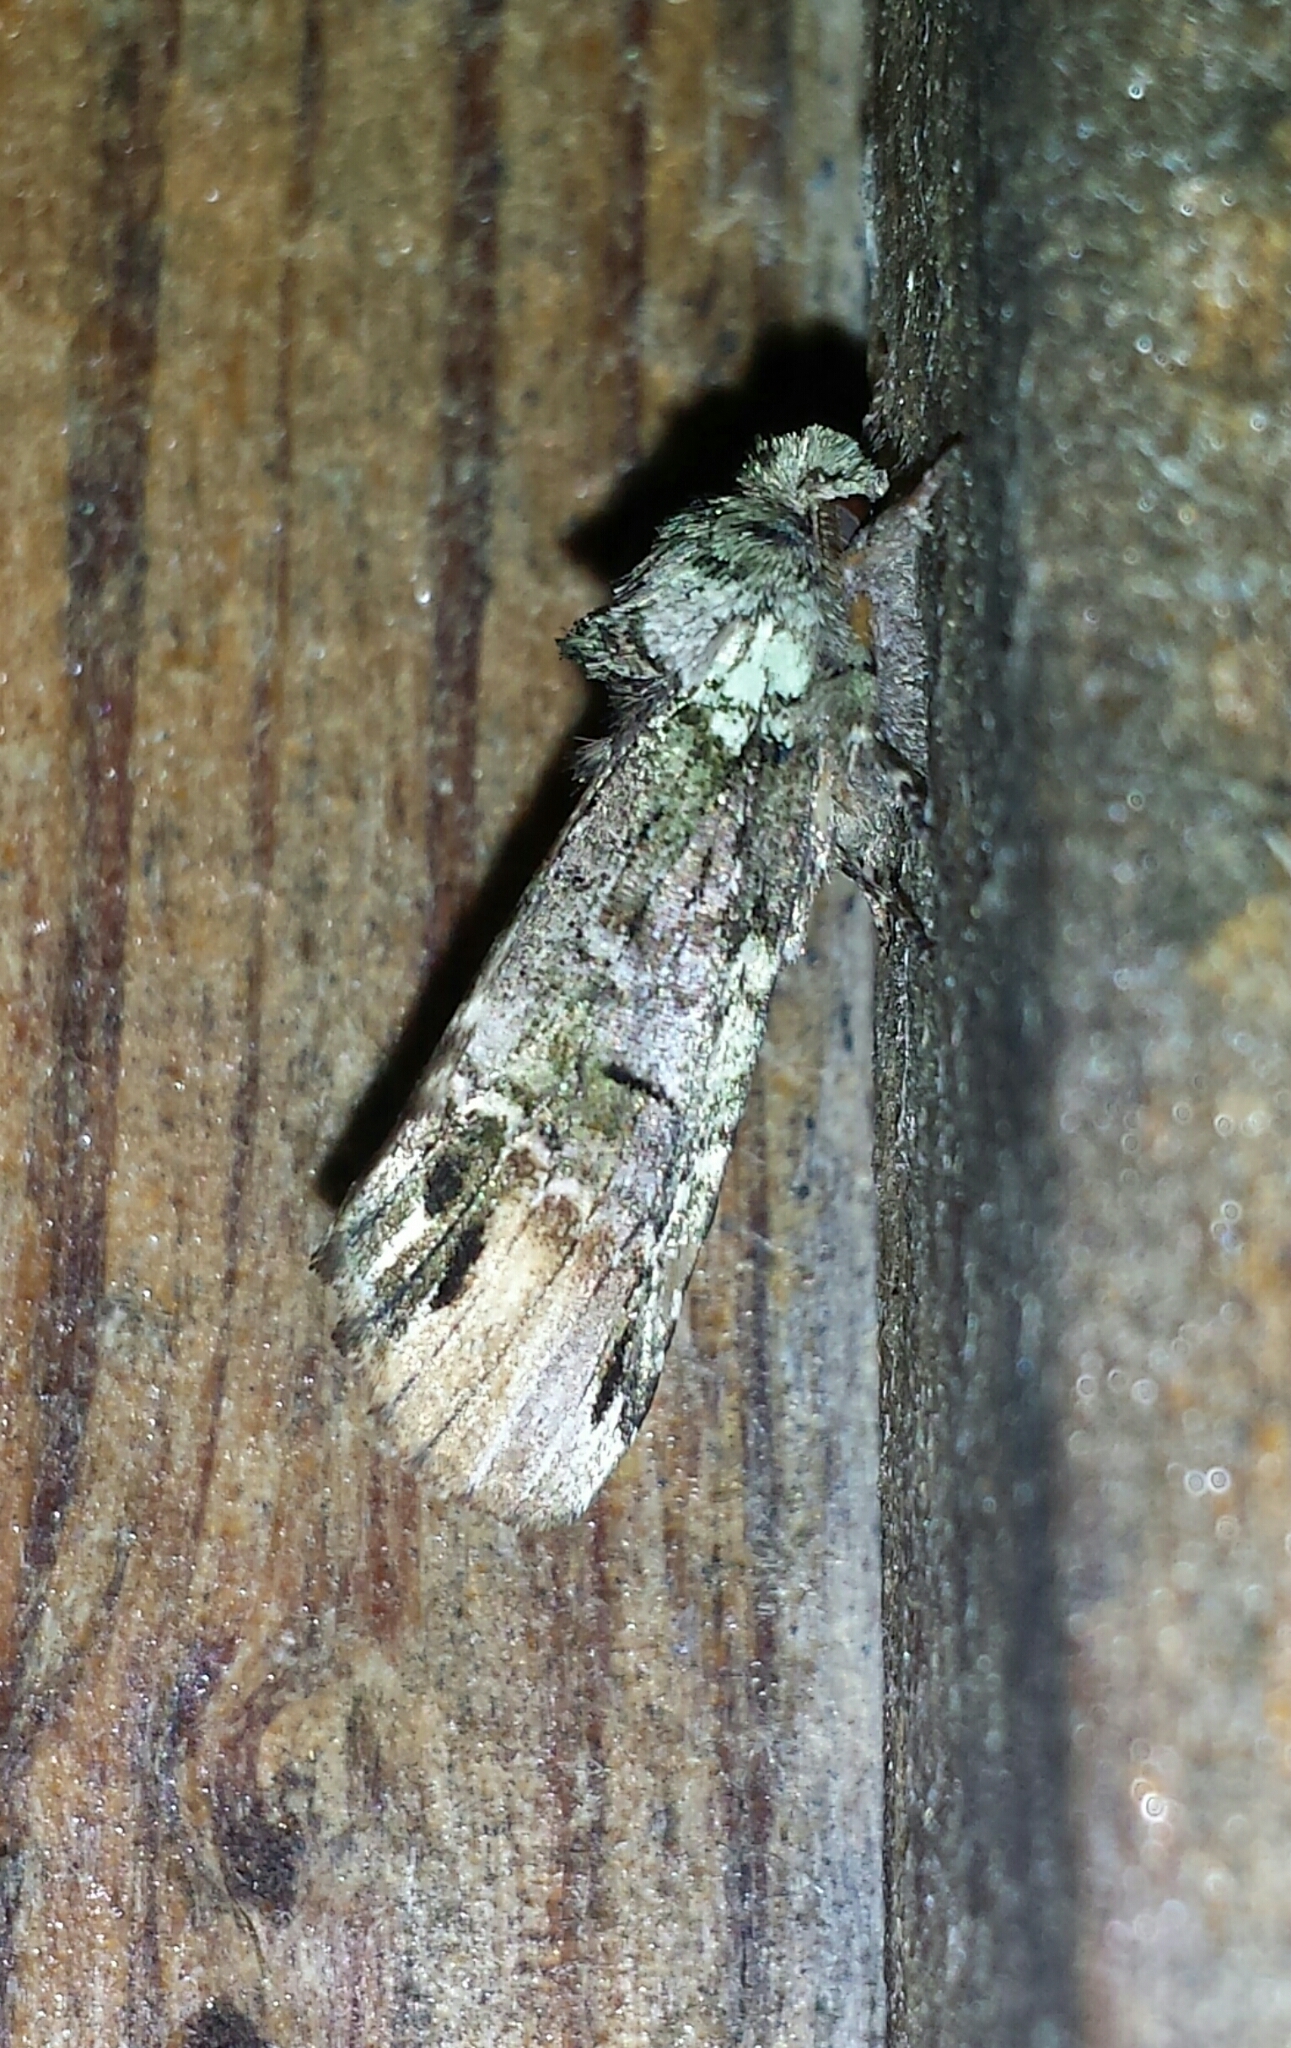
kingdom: Animalia
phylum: Arthropoda
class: Insecta
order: Lepidoptera
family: Notodontidae
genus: Schizura
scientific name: Schizura
